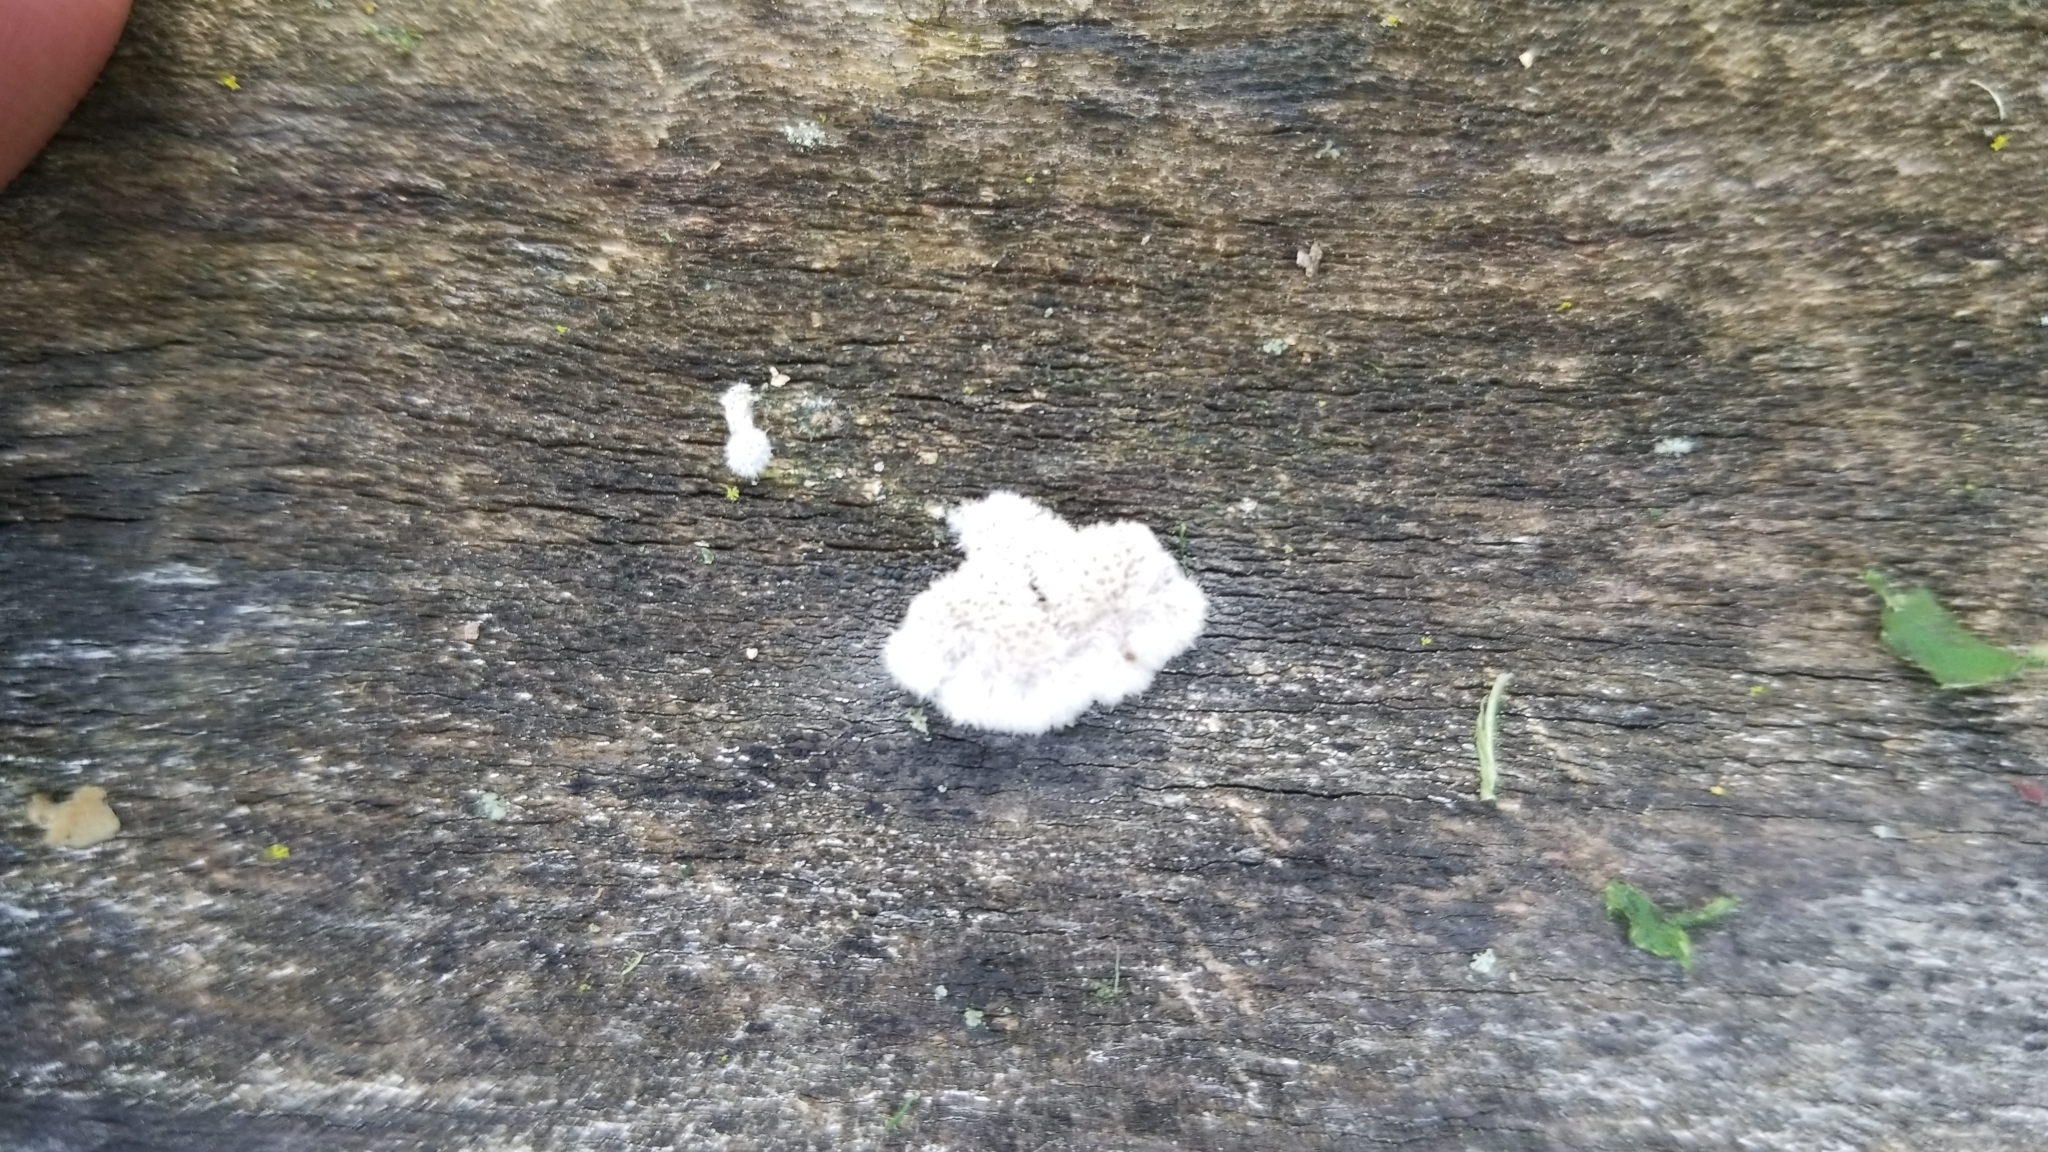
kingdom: Fungi
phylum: Basidiomycota
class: Agaricomycetes
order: Agaricales
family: Schizophyllaceae
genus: Schizophyllum
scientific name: Schizophyllum commune
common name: Common porecrust
